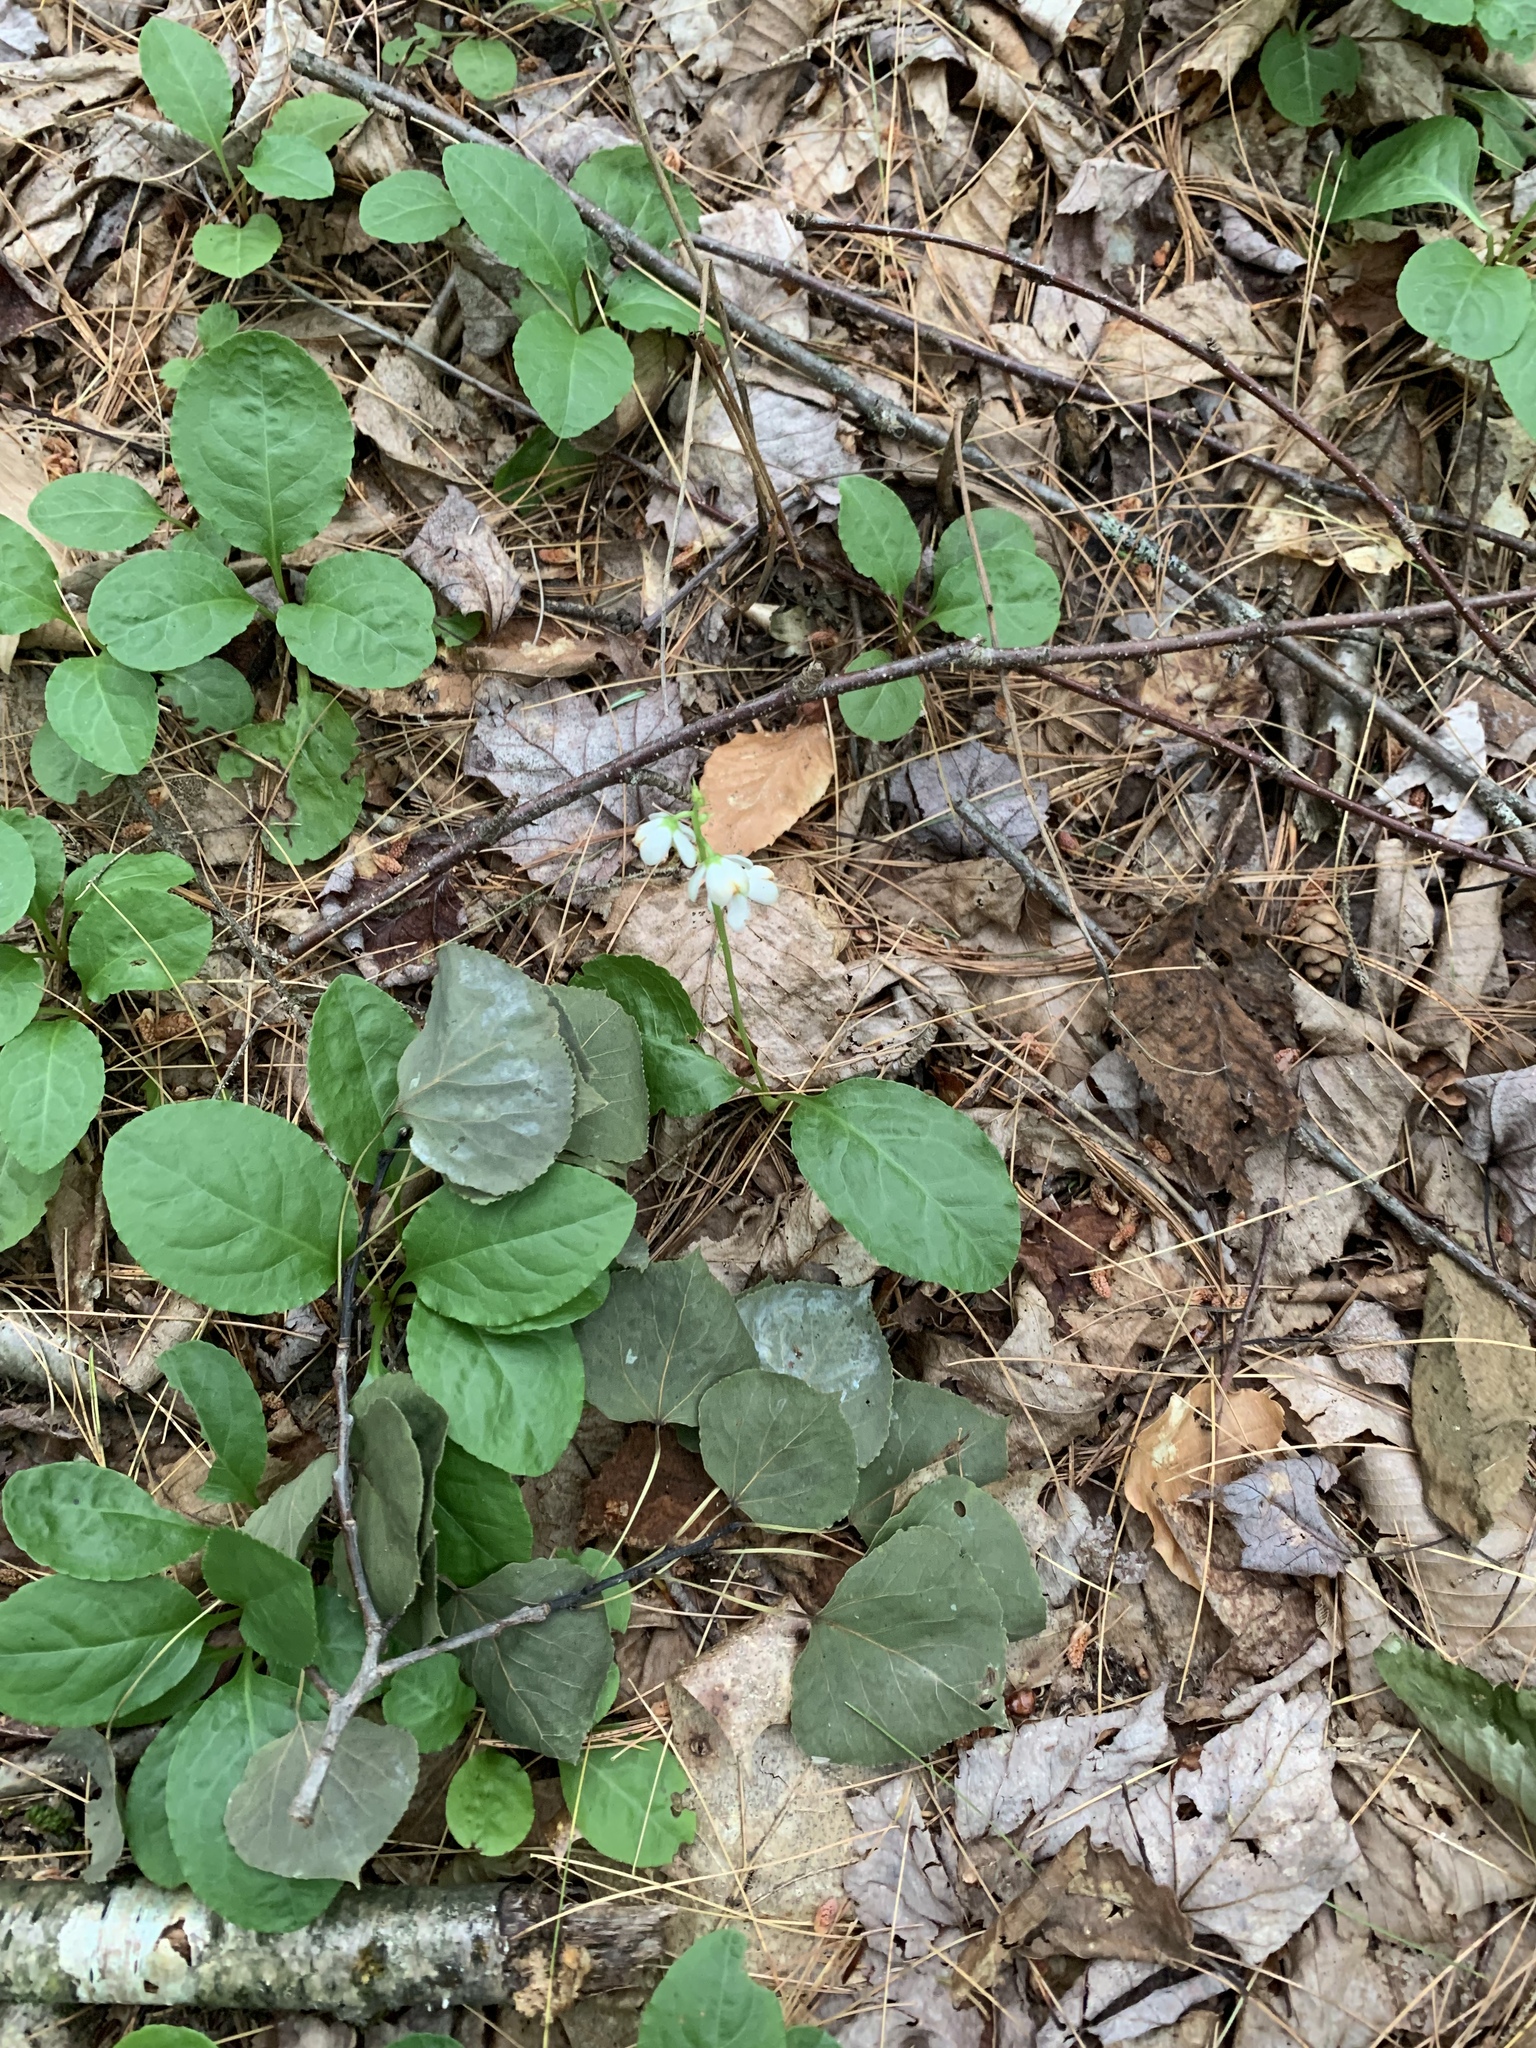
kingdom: Plantae
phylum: Tracheophyta
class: Magnoliopsida
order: Ericales
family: Ericaceae
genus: Pyrola
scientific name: Pyrola elliptica
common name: Shinleaf
